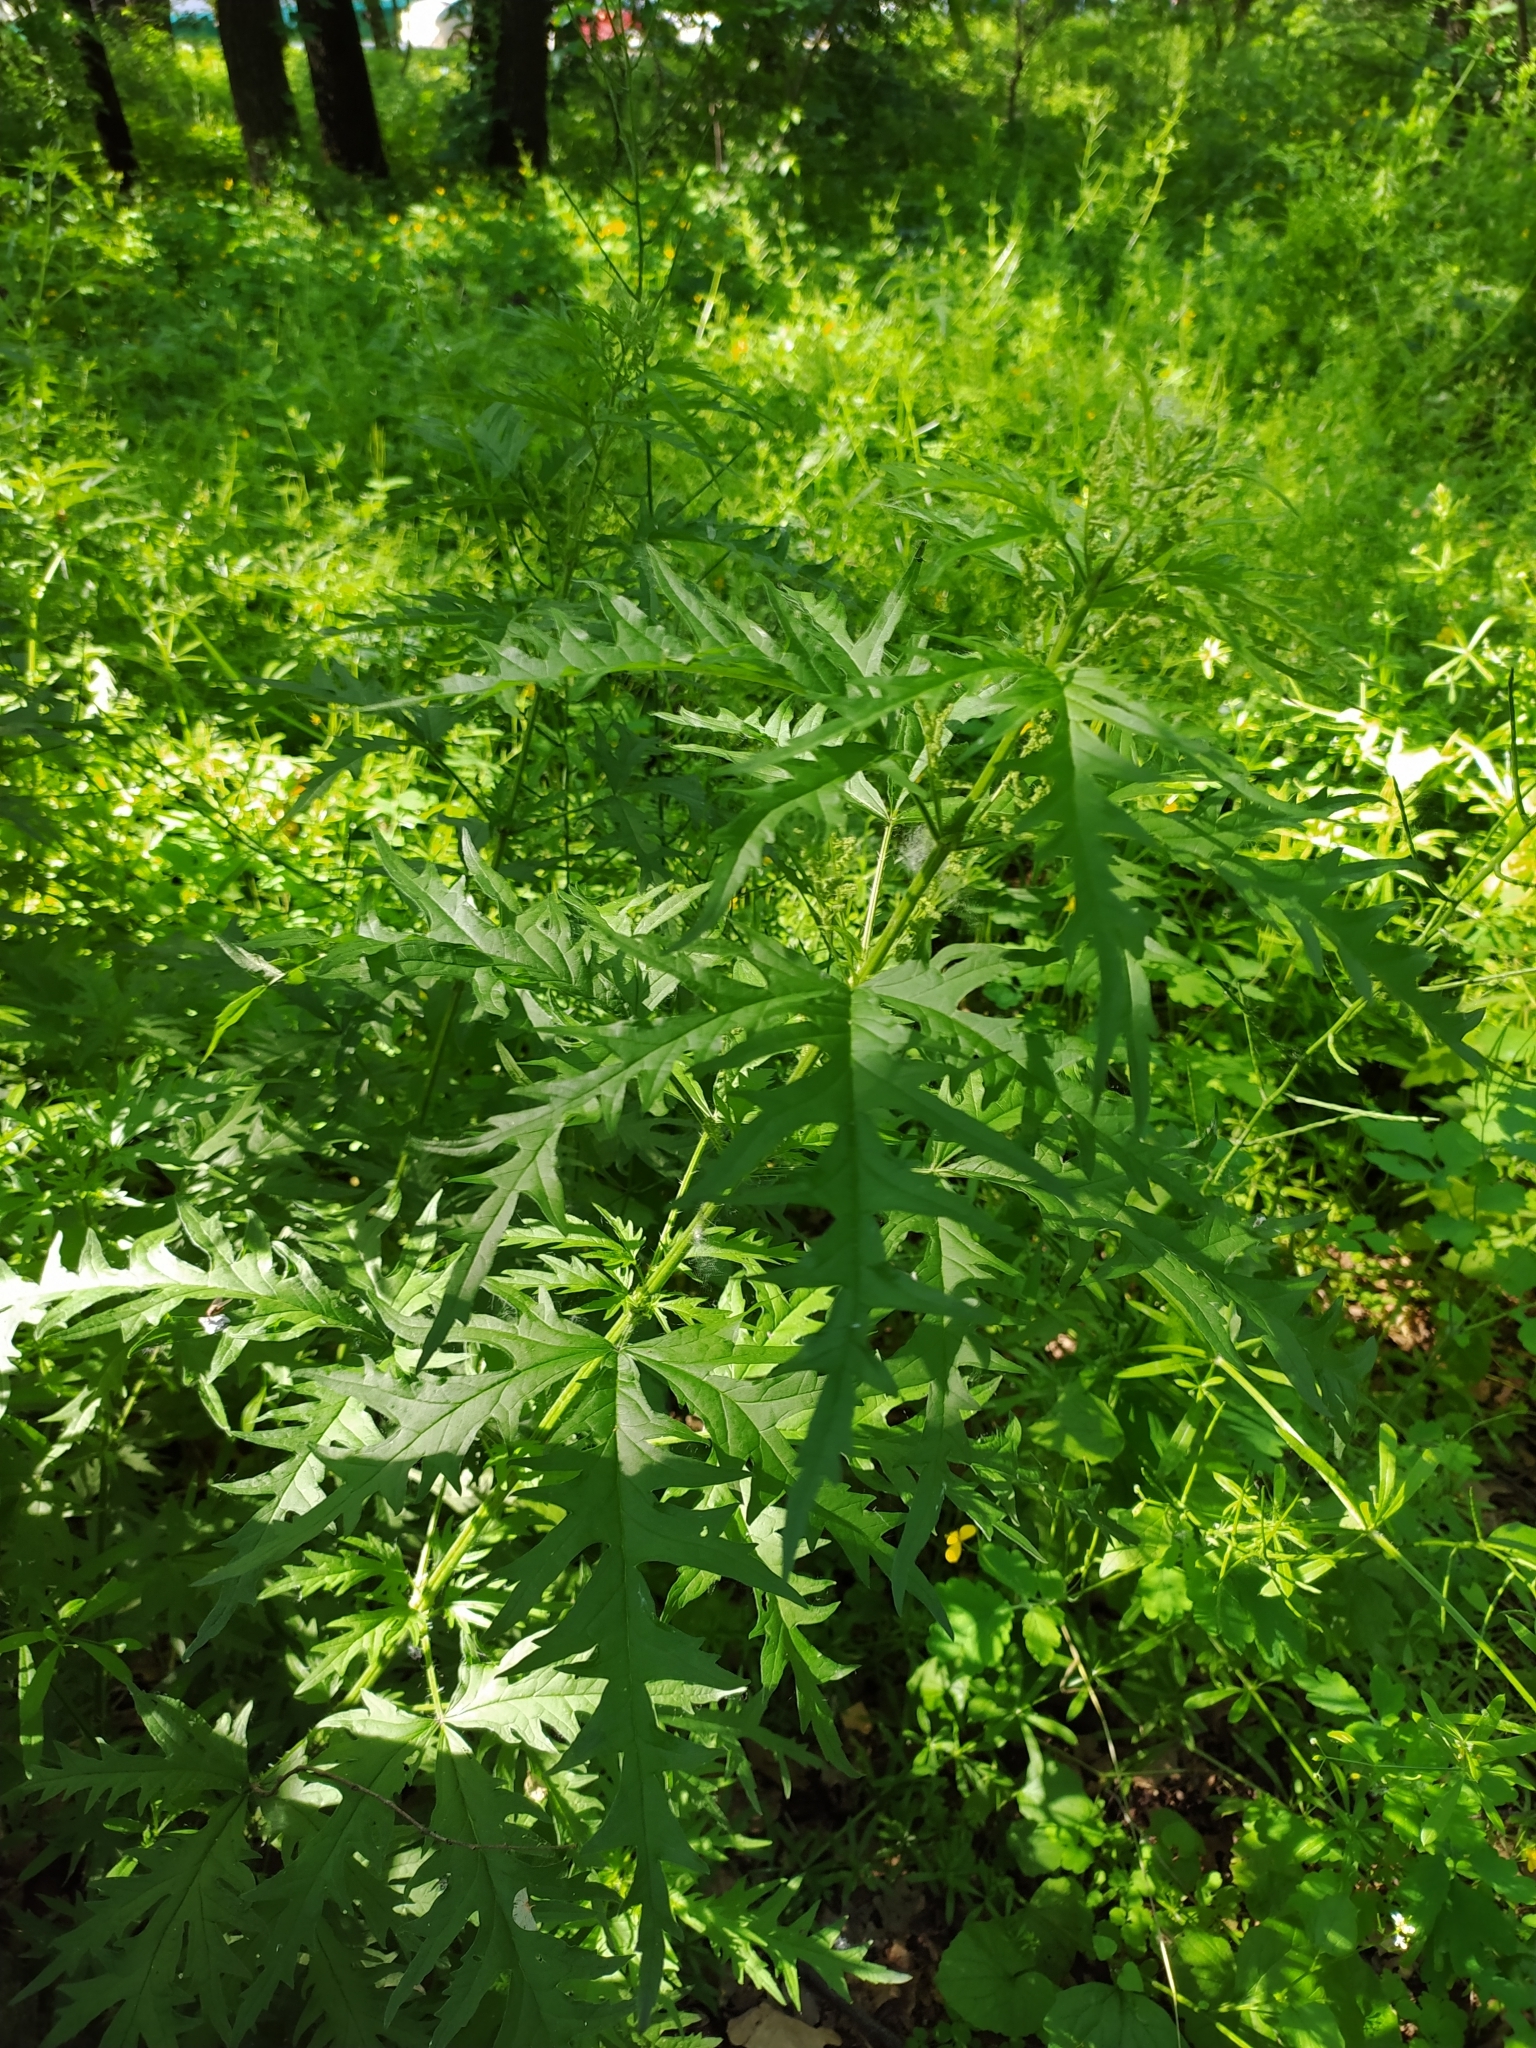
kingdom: Plantae
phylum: Tracheophyta
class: Magnoliopsida
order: Rosales
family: Urticaceae
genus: Urtica
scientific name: Urtica cannabina
